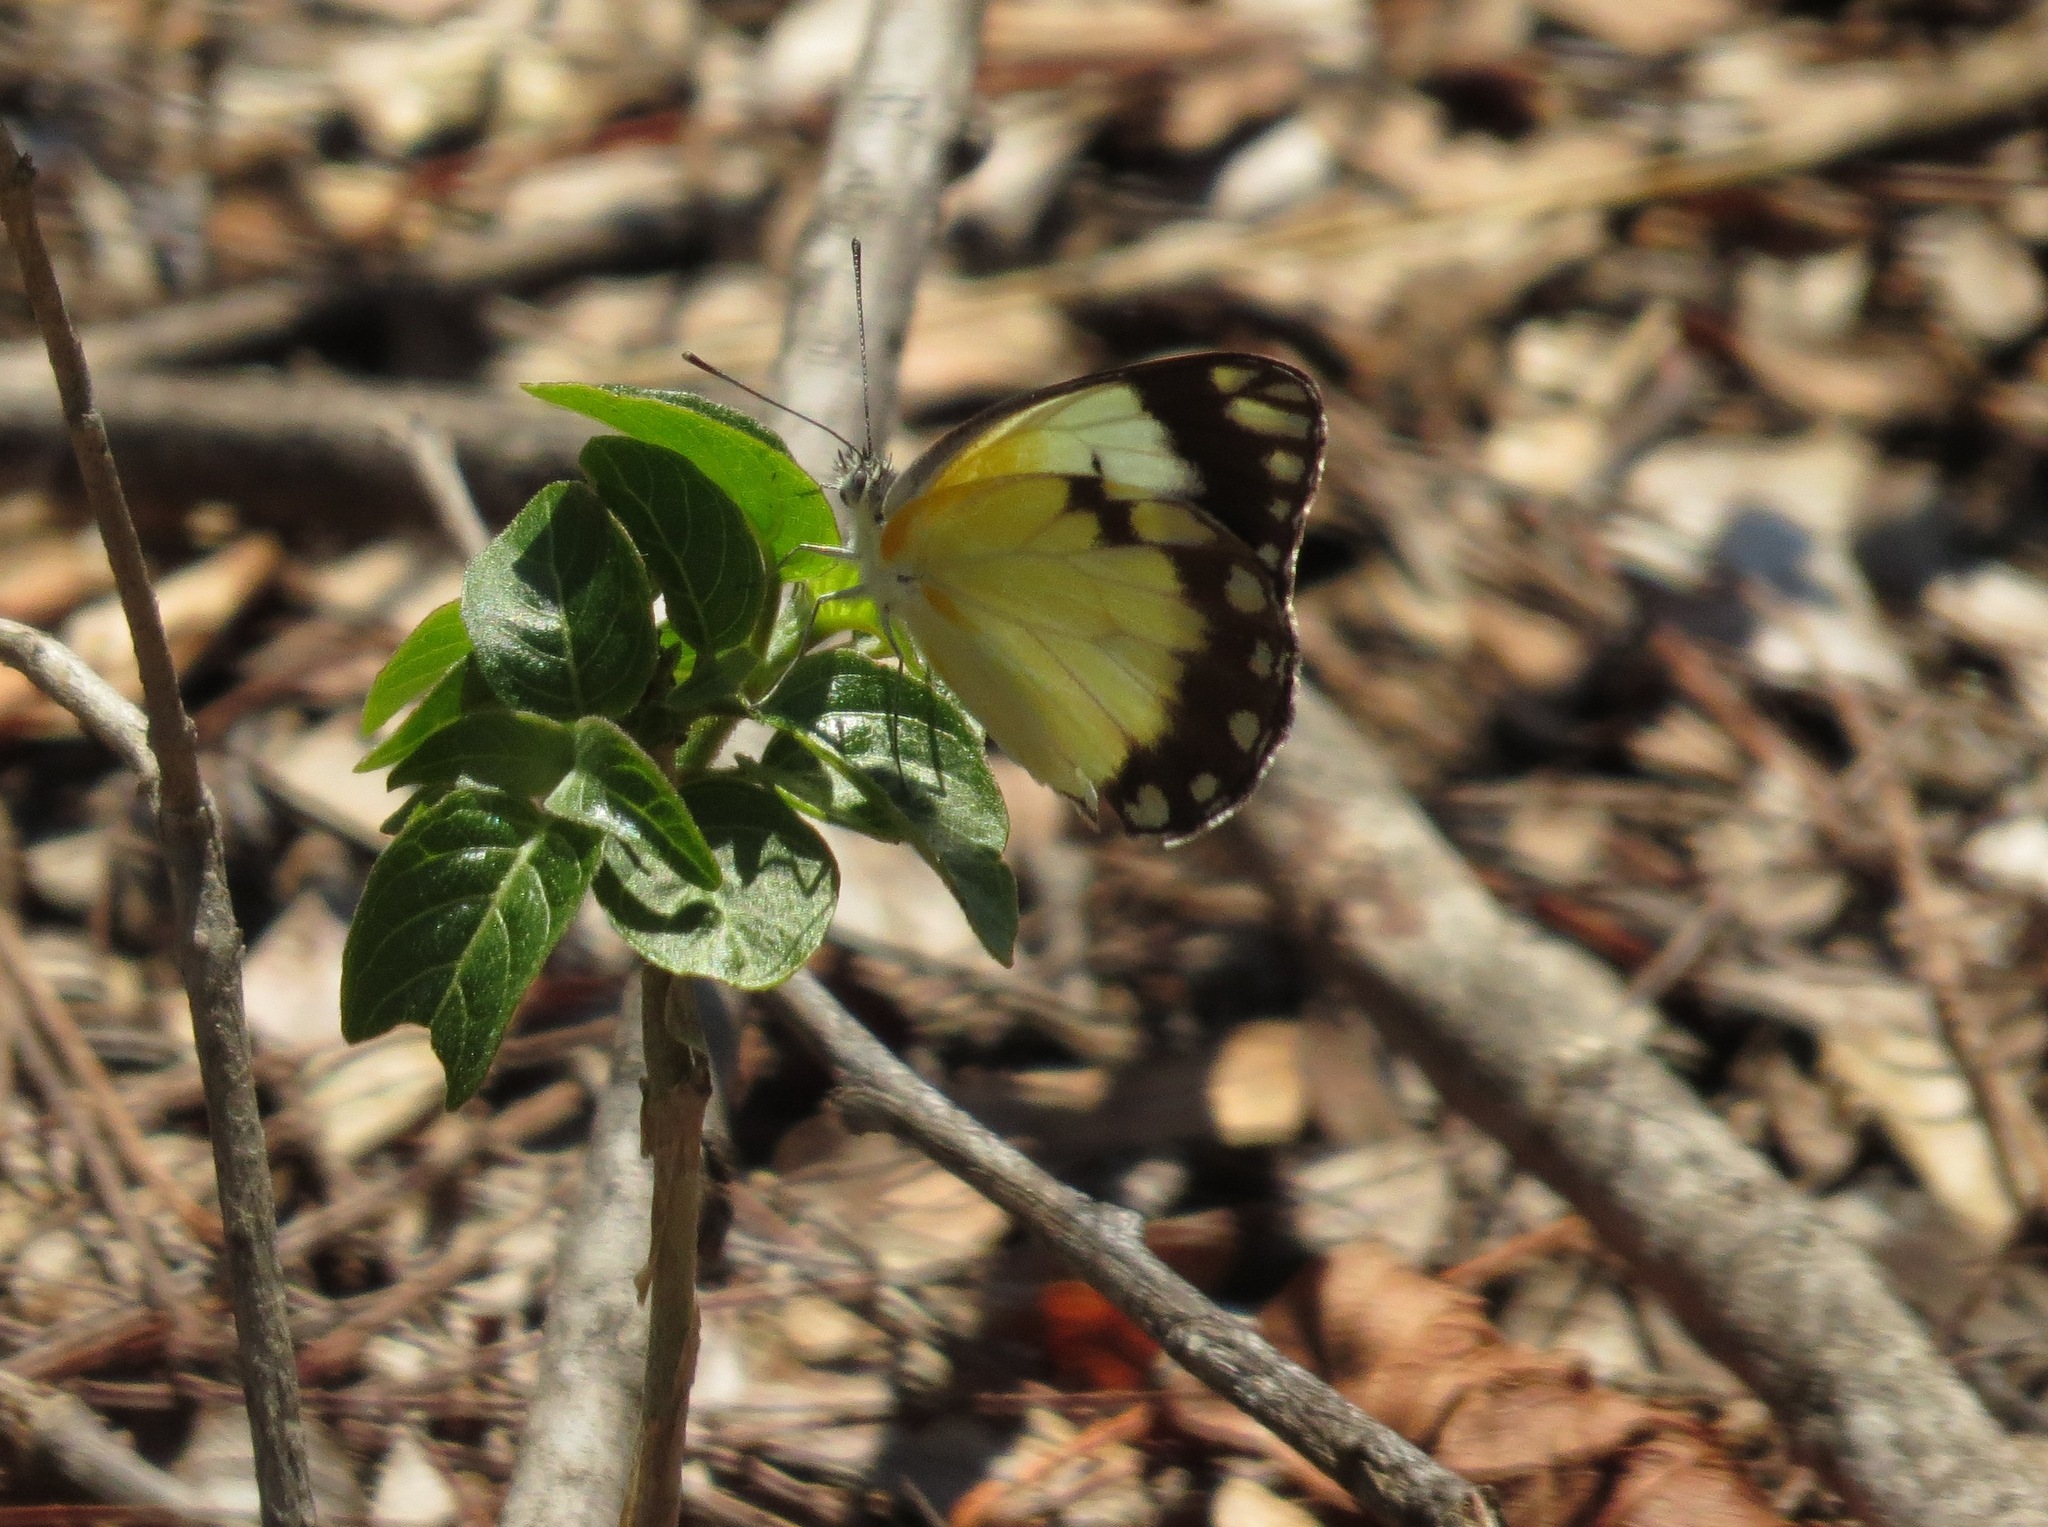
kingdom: Animalia
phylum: Arthropoda
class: Insecta
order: Lepidoptera
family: Pieridae
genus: Belenois
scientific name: Belenois creona
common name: African caper white
